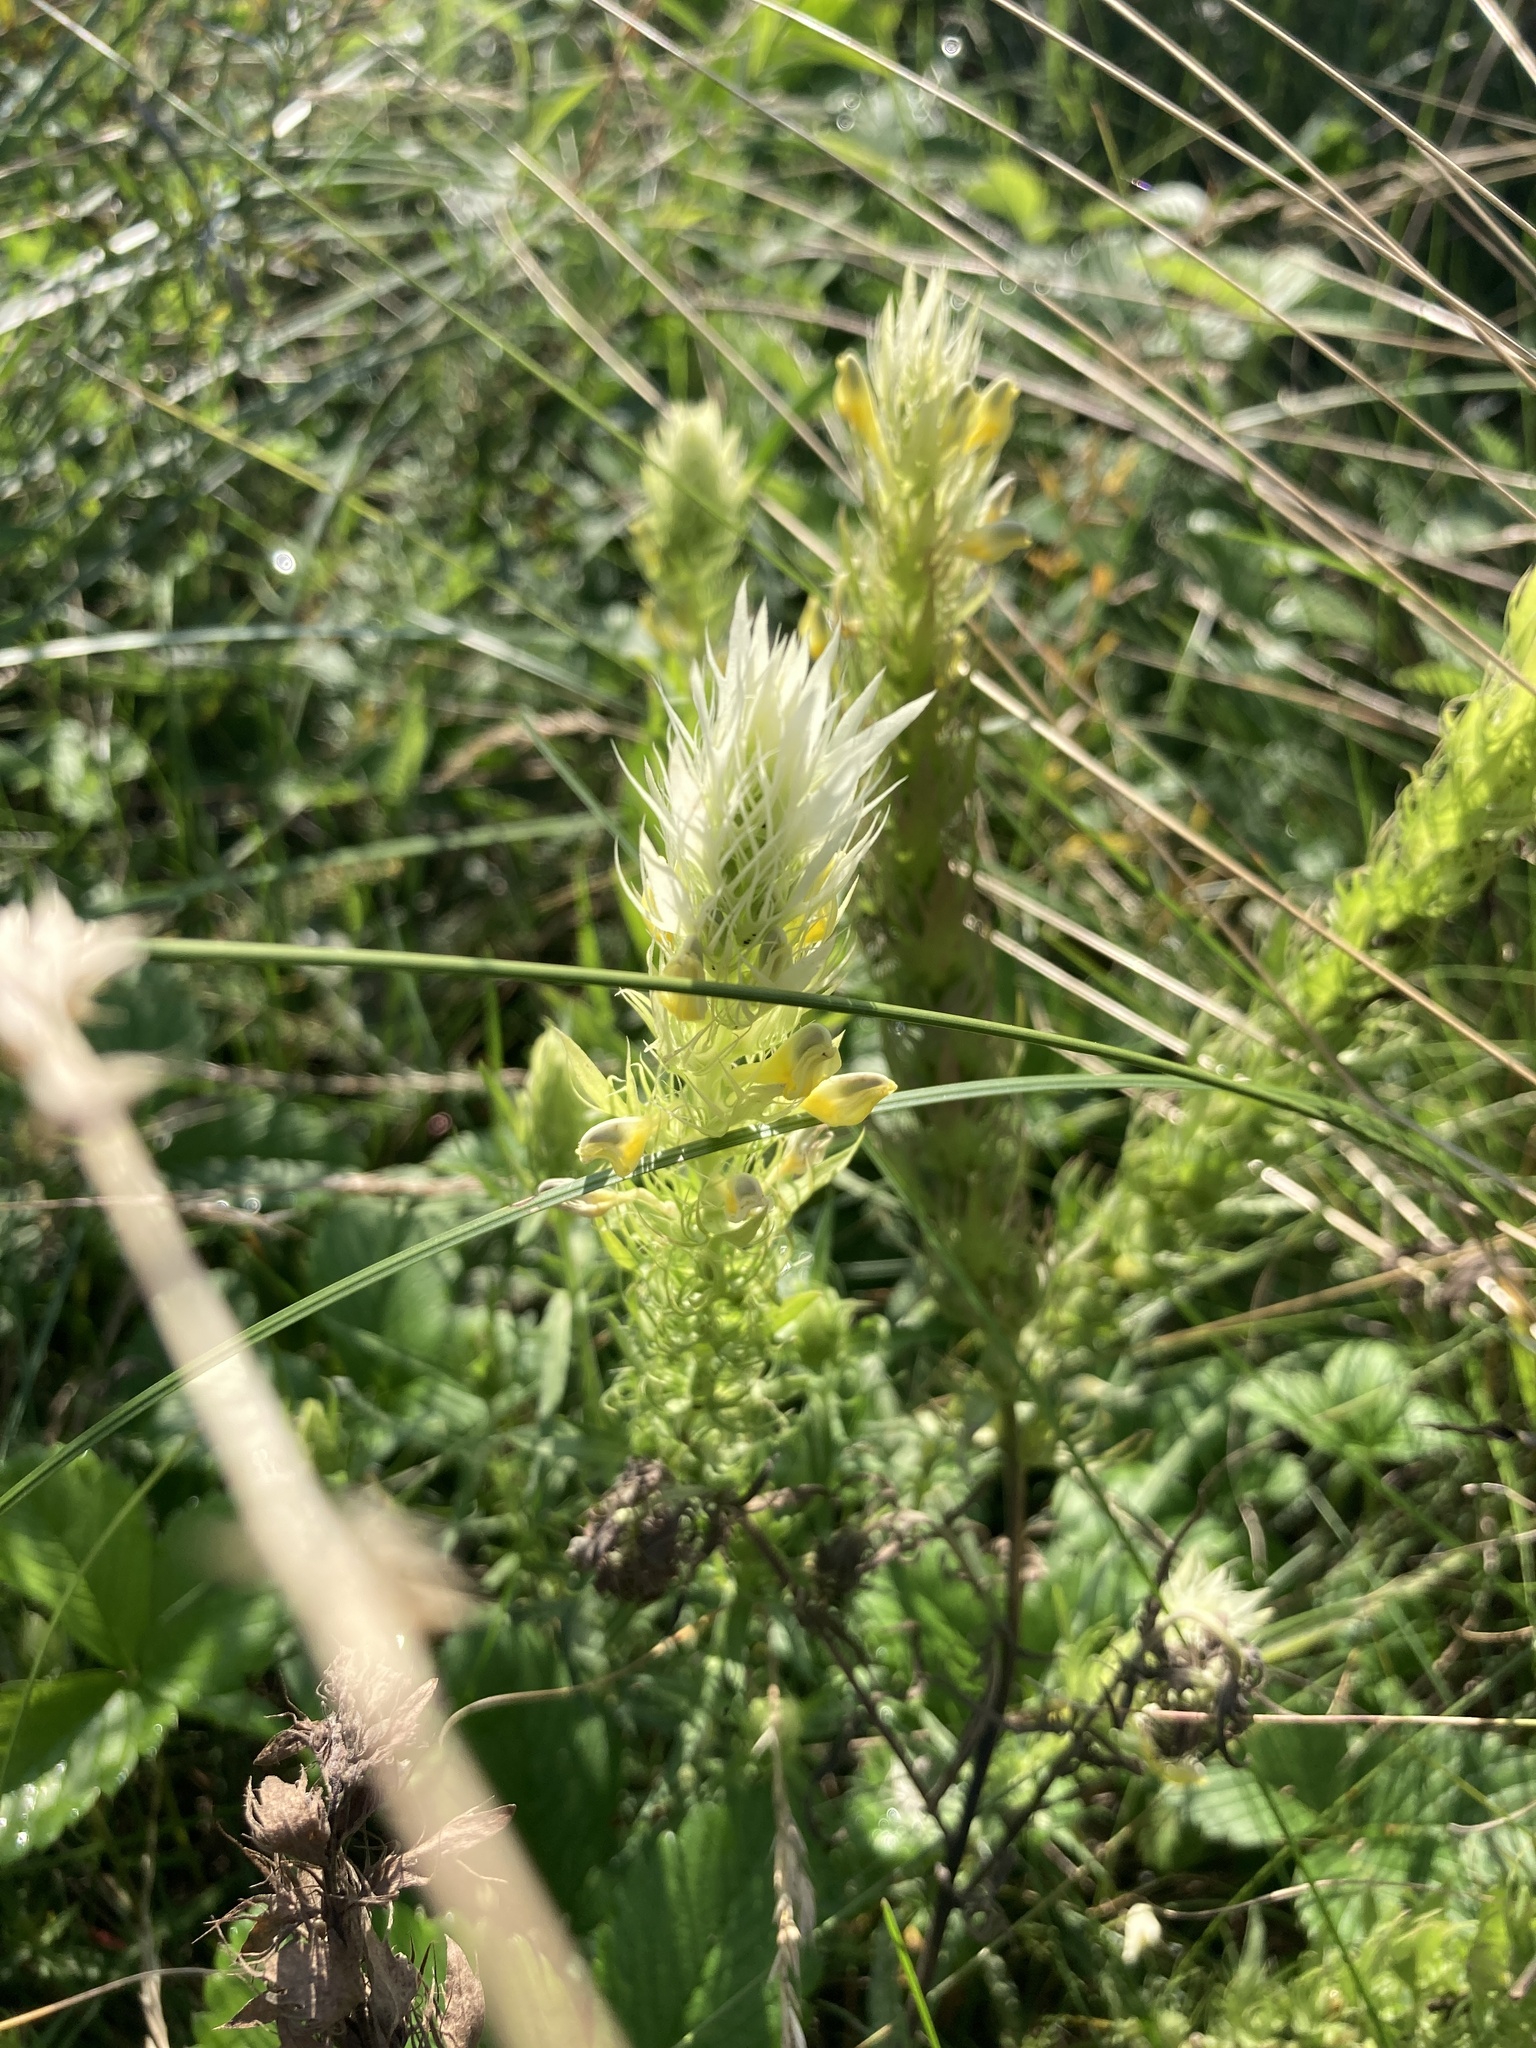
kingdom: Plantae
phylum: Tracheophyta
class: Magnoliopsida
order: Lamiales
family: Orobanchaceae
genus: Melampyrum
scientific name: Melampyrum arvense
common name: Field cow-wheat
